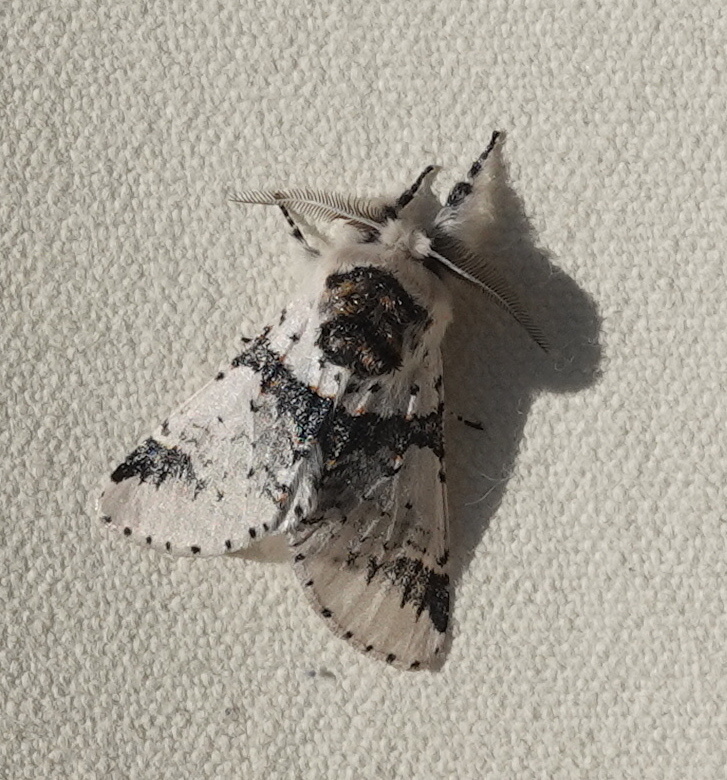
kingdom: Animalia
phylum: Arthropoda
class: Insecta
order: Lepidoptera
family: Notodontidae
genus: Furcula
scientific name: Furcula scolopendrina
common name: Zigzag furcula moth
